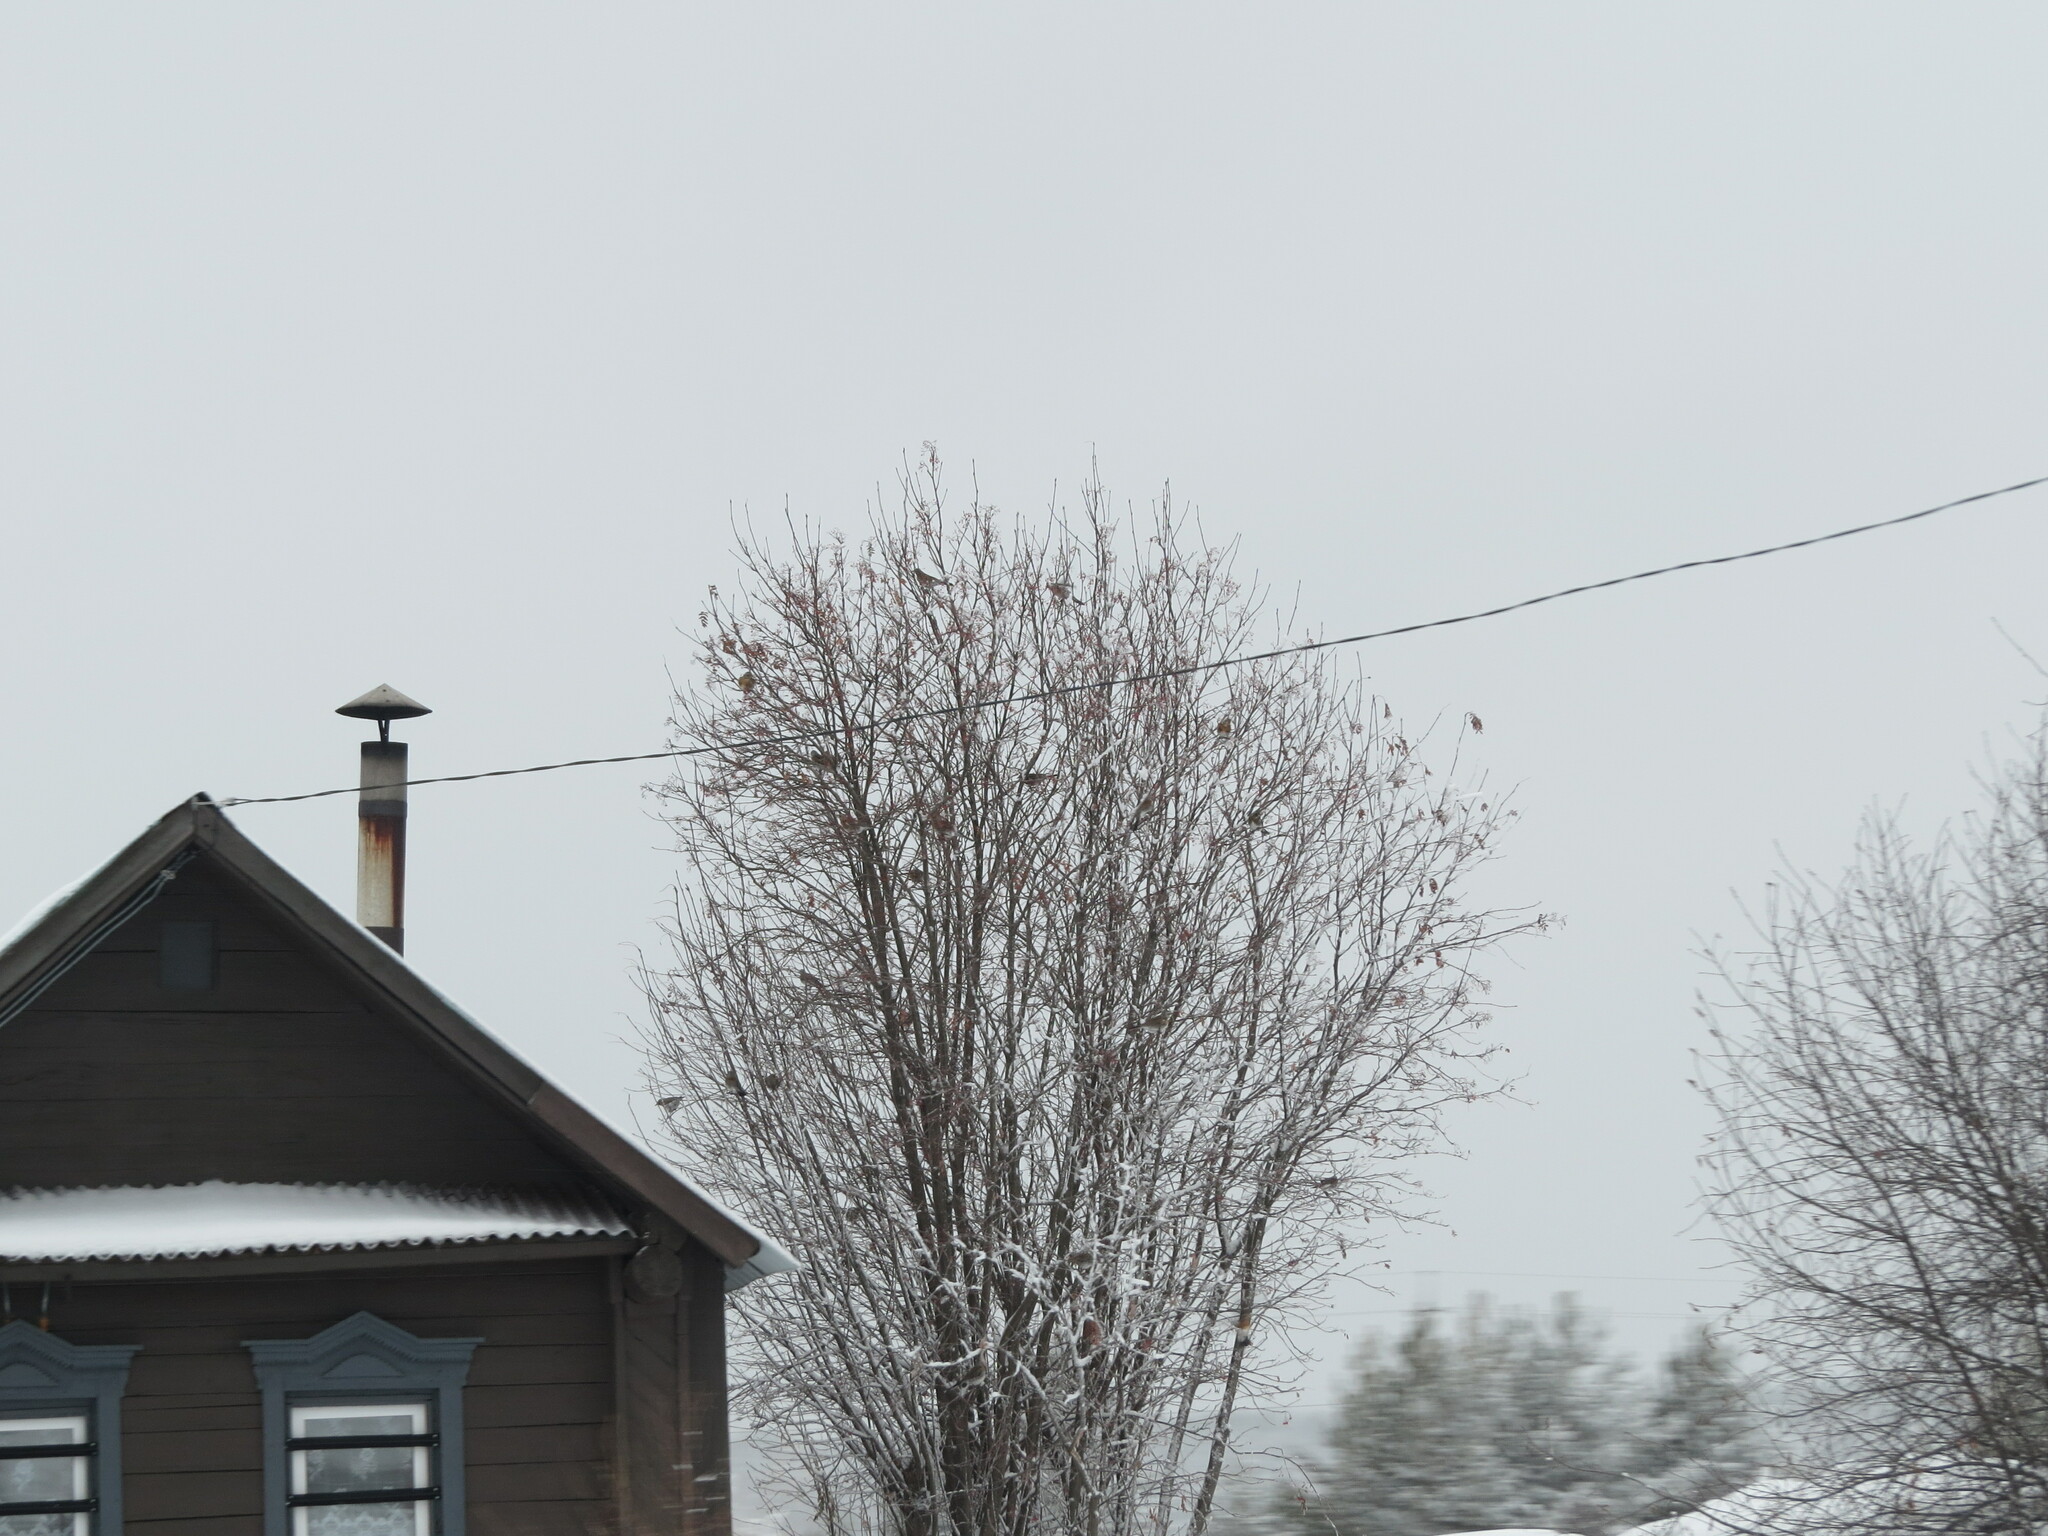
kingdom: Animalia
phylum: Chordata
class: Aves
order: Passeriformes
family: Turdidae
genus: Turdus
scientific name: Turdus pilaris
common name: Fieldfare
